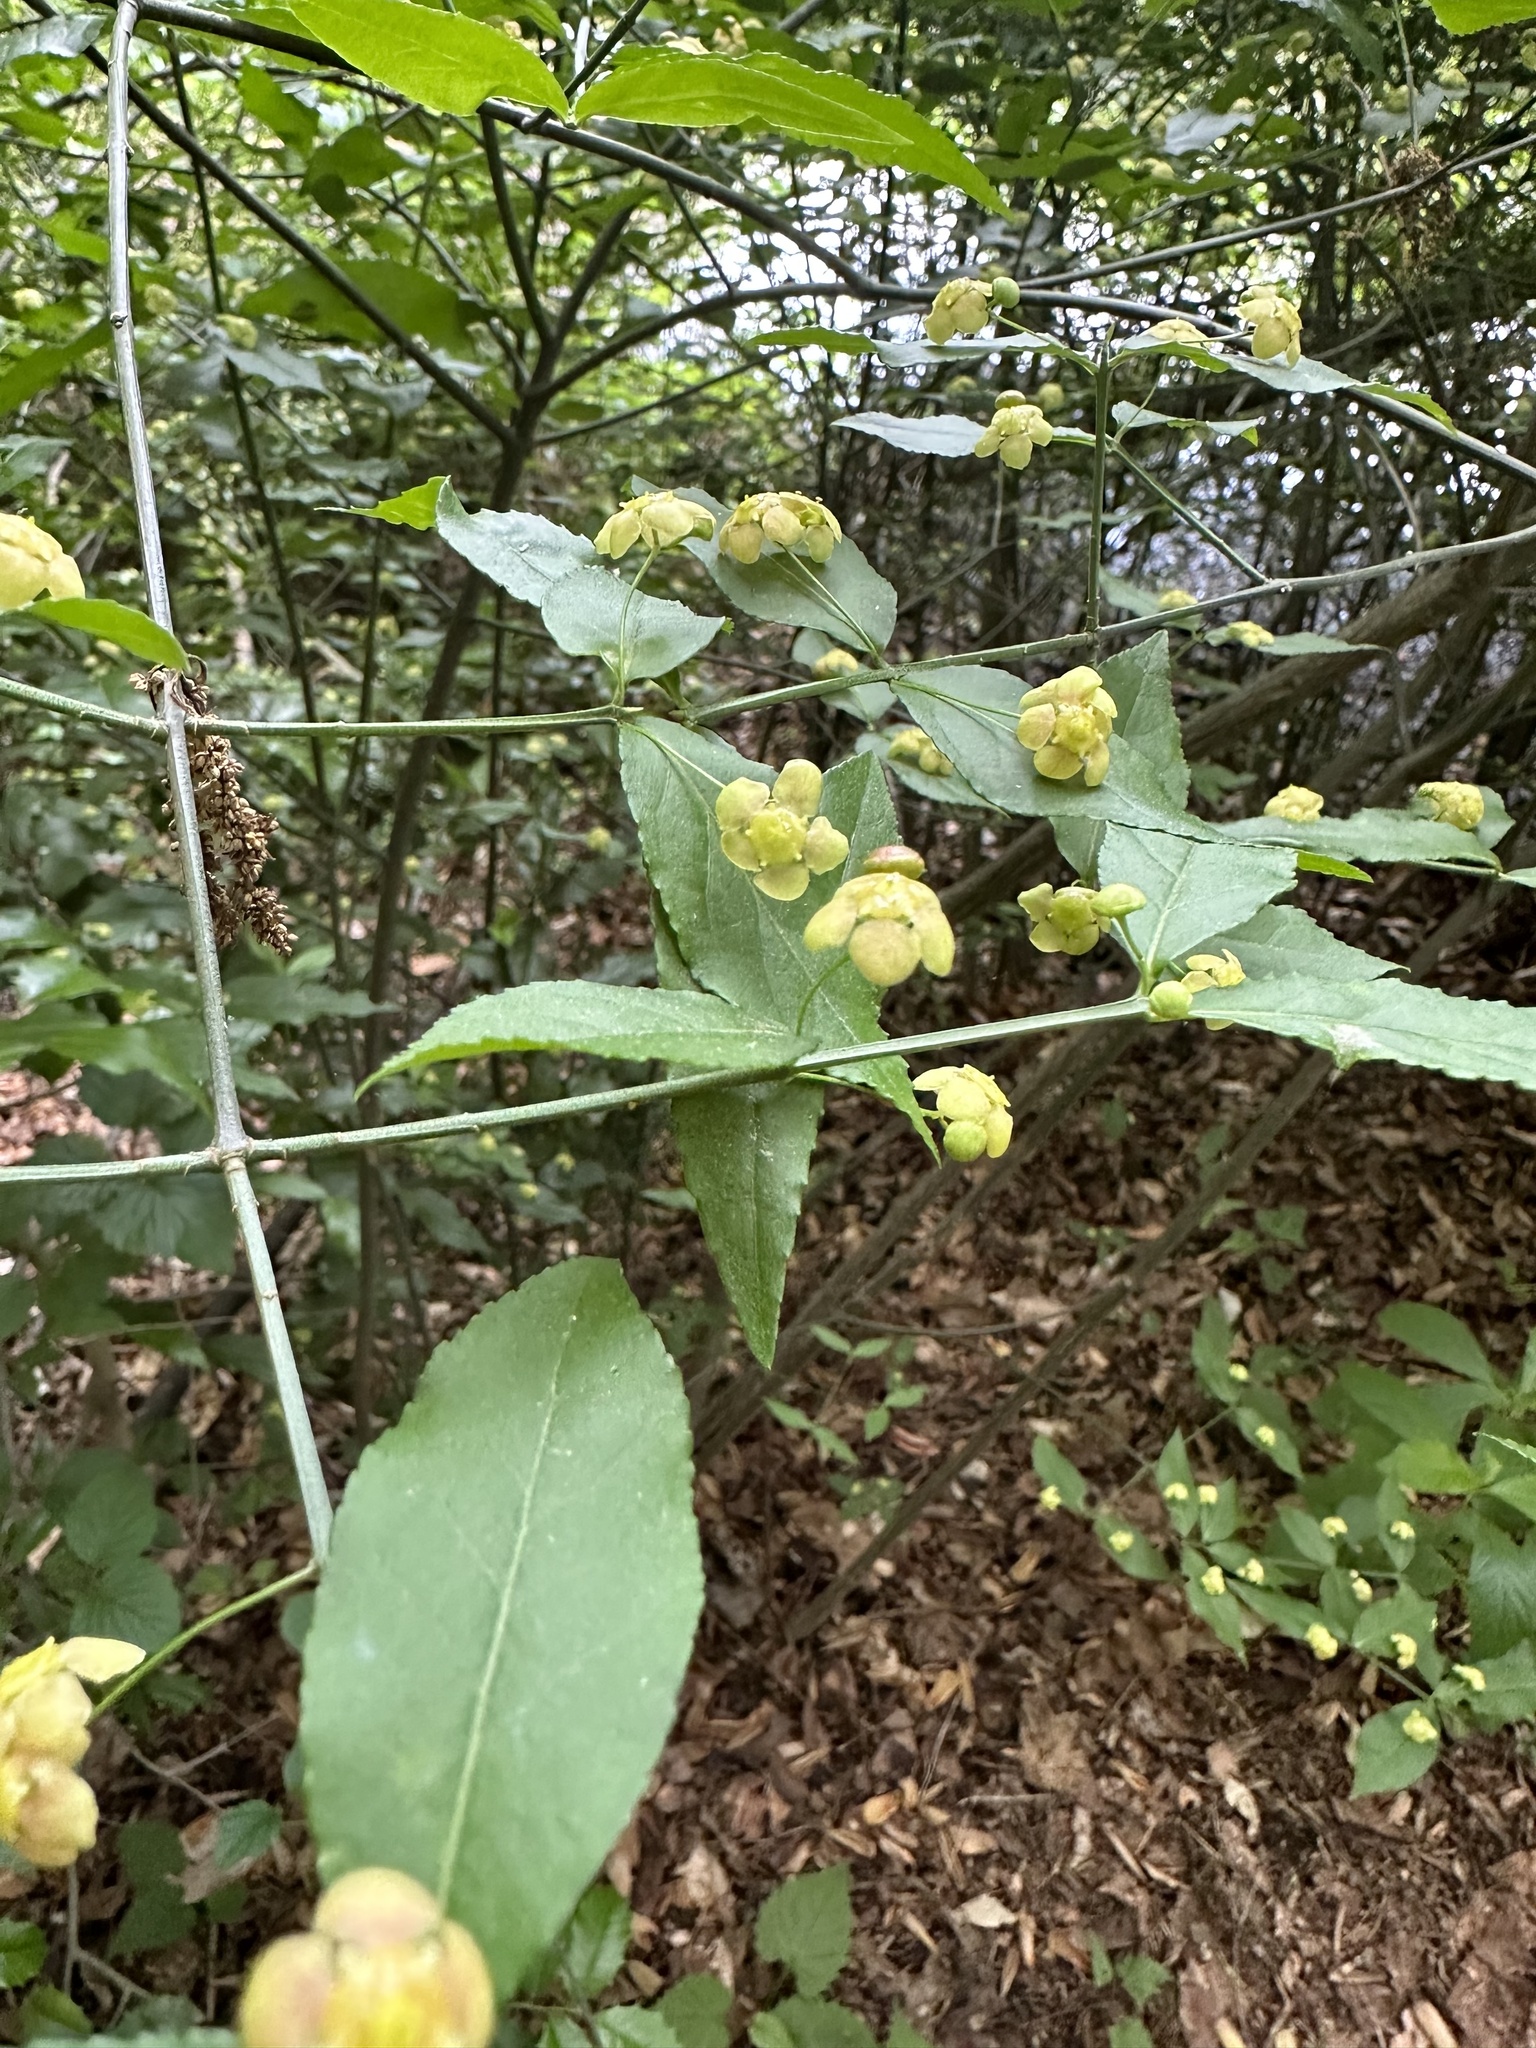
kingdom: Plantae
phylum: Tracheophyta
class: Magnoliopsida
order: Celastrales
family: Celastraceae
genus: Euonymus
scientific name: Euonymus americanus
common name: Bursting-heart
